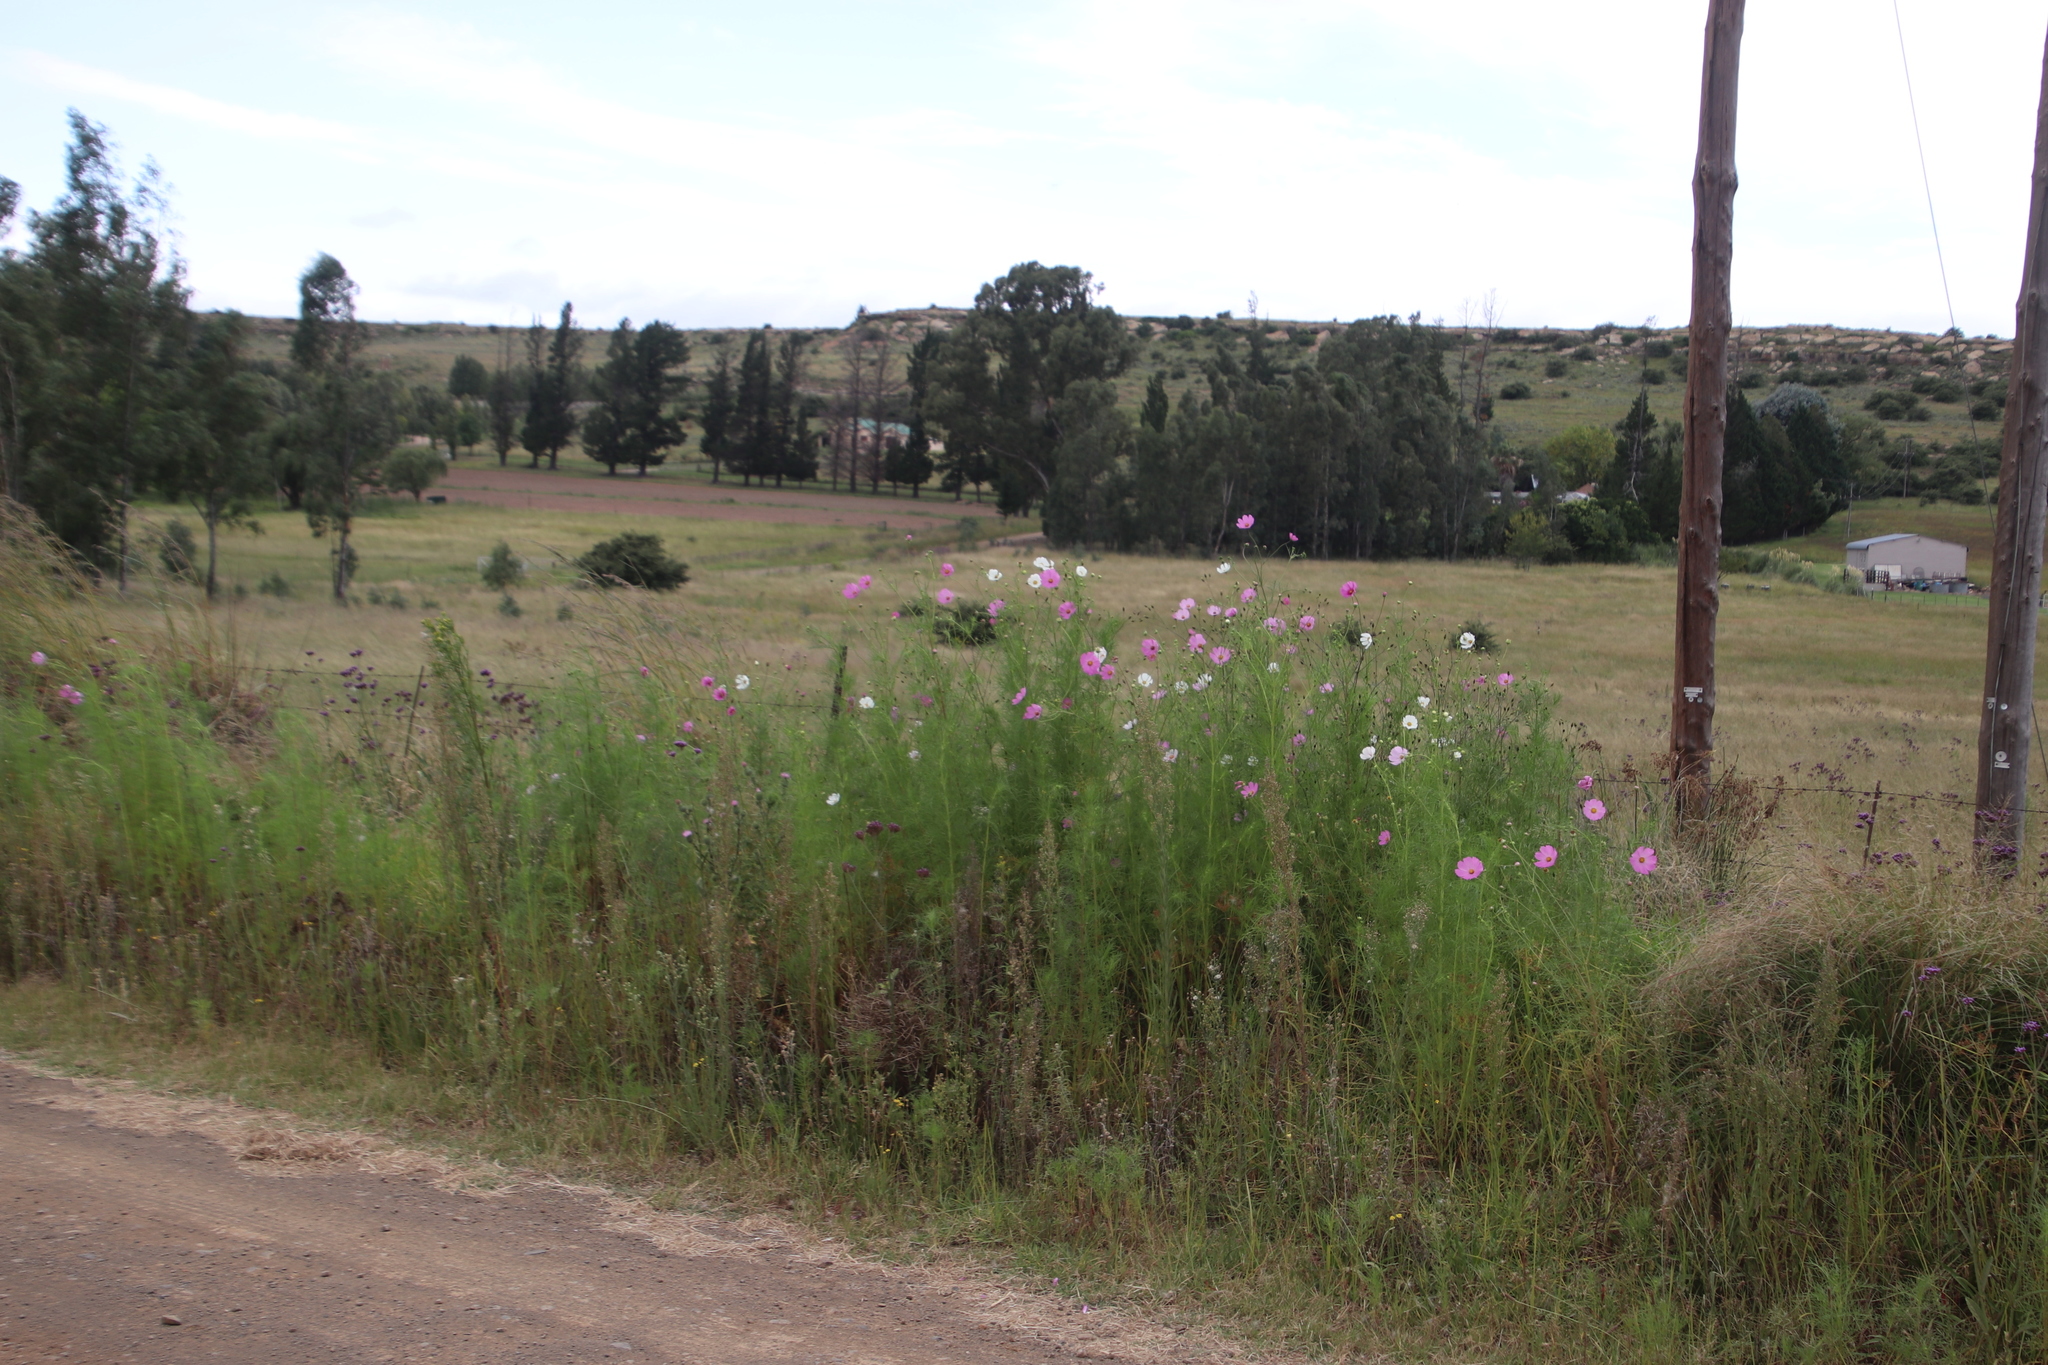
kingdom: Plantae
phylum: Tracheophyta
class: Magnoliopsida
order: Asterales
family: Asteraceae
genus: Cosmos
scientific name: Cosmos bipinnatus
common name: Garden cosmos
